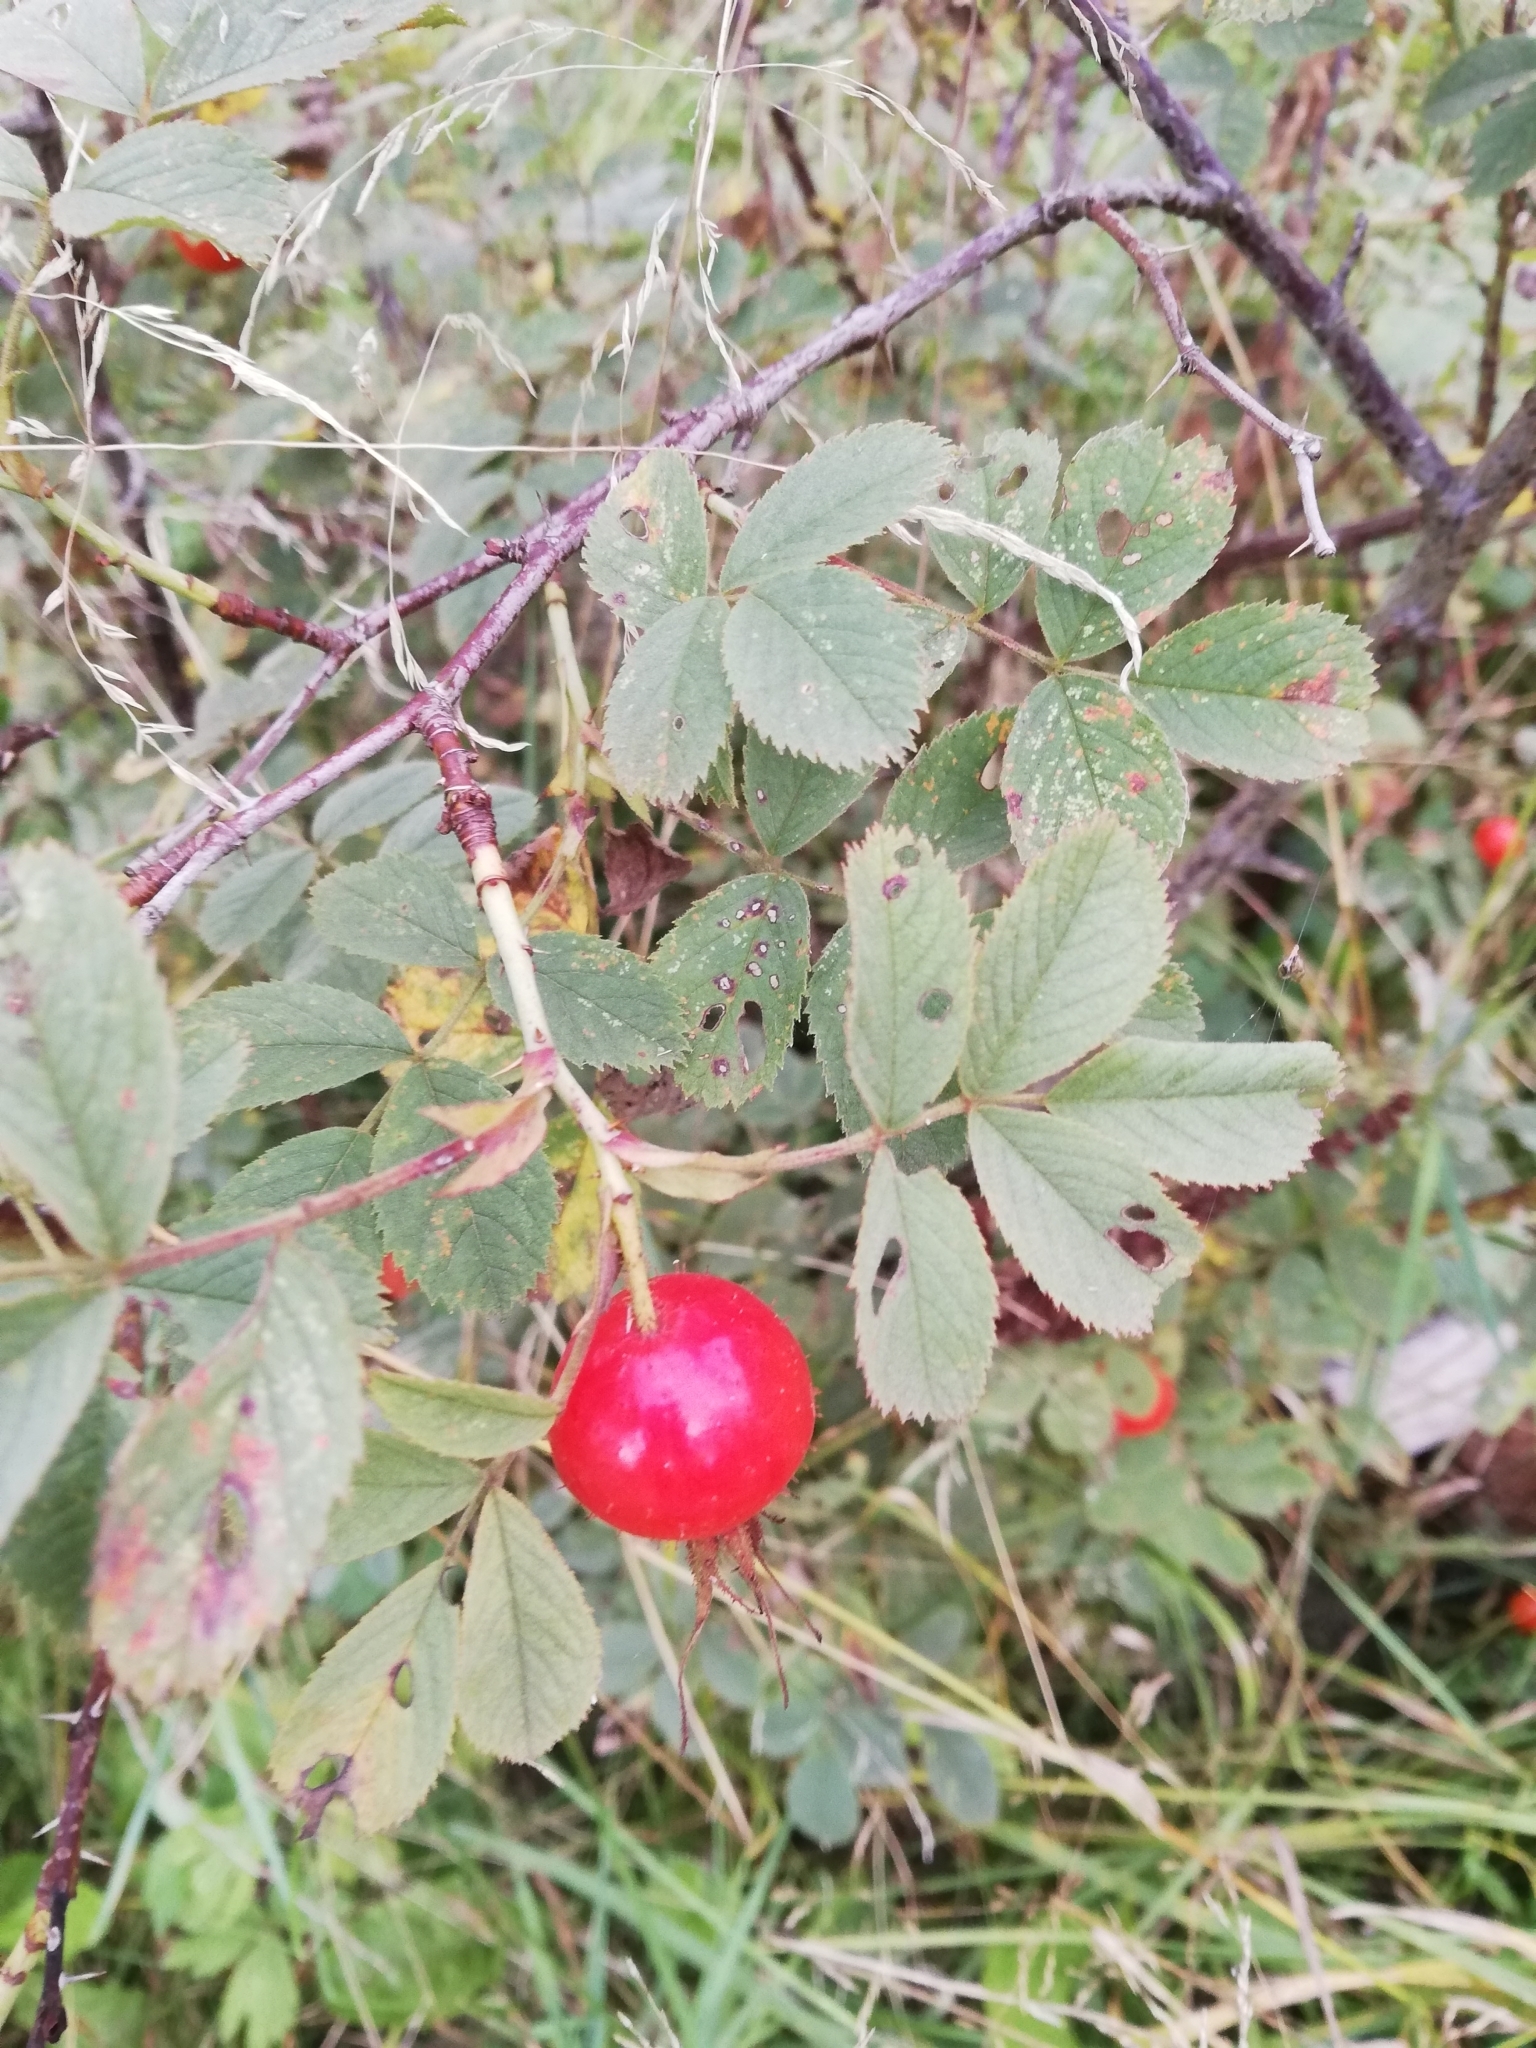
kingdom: Plantae
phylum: Tracheophyta
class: Magnoliopsida
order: Rosales
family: Rosaceae
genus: Rosa
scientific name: Rosa villosa
